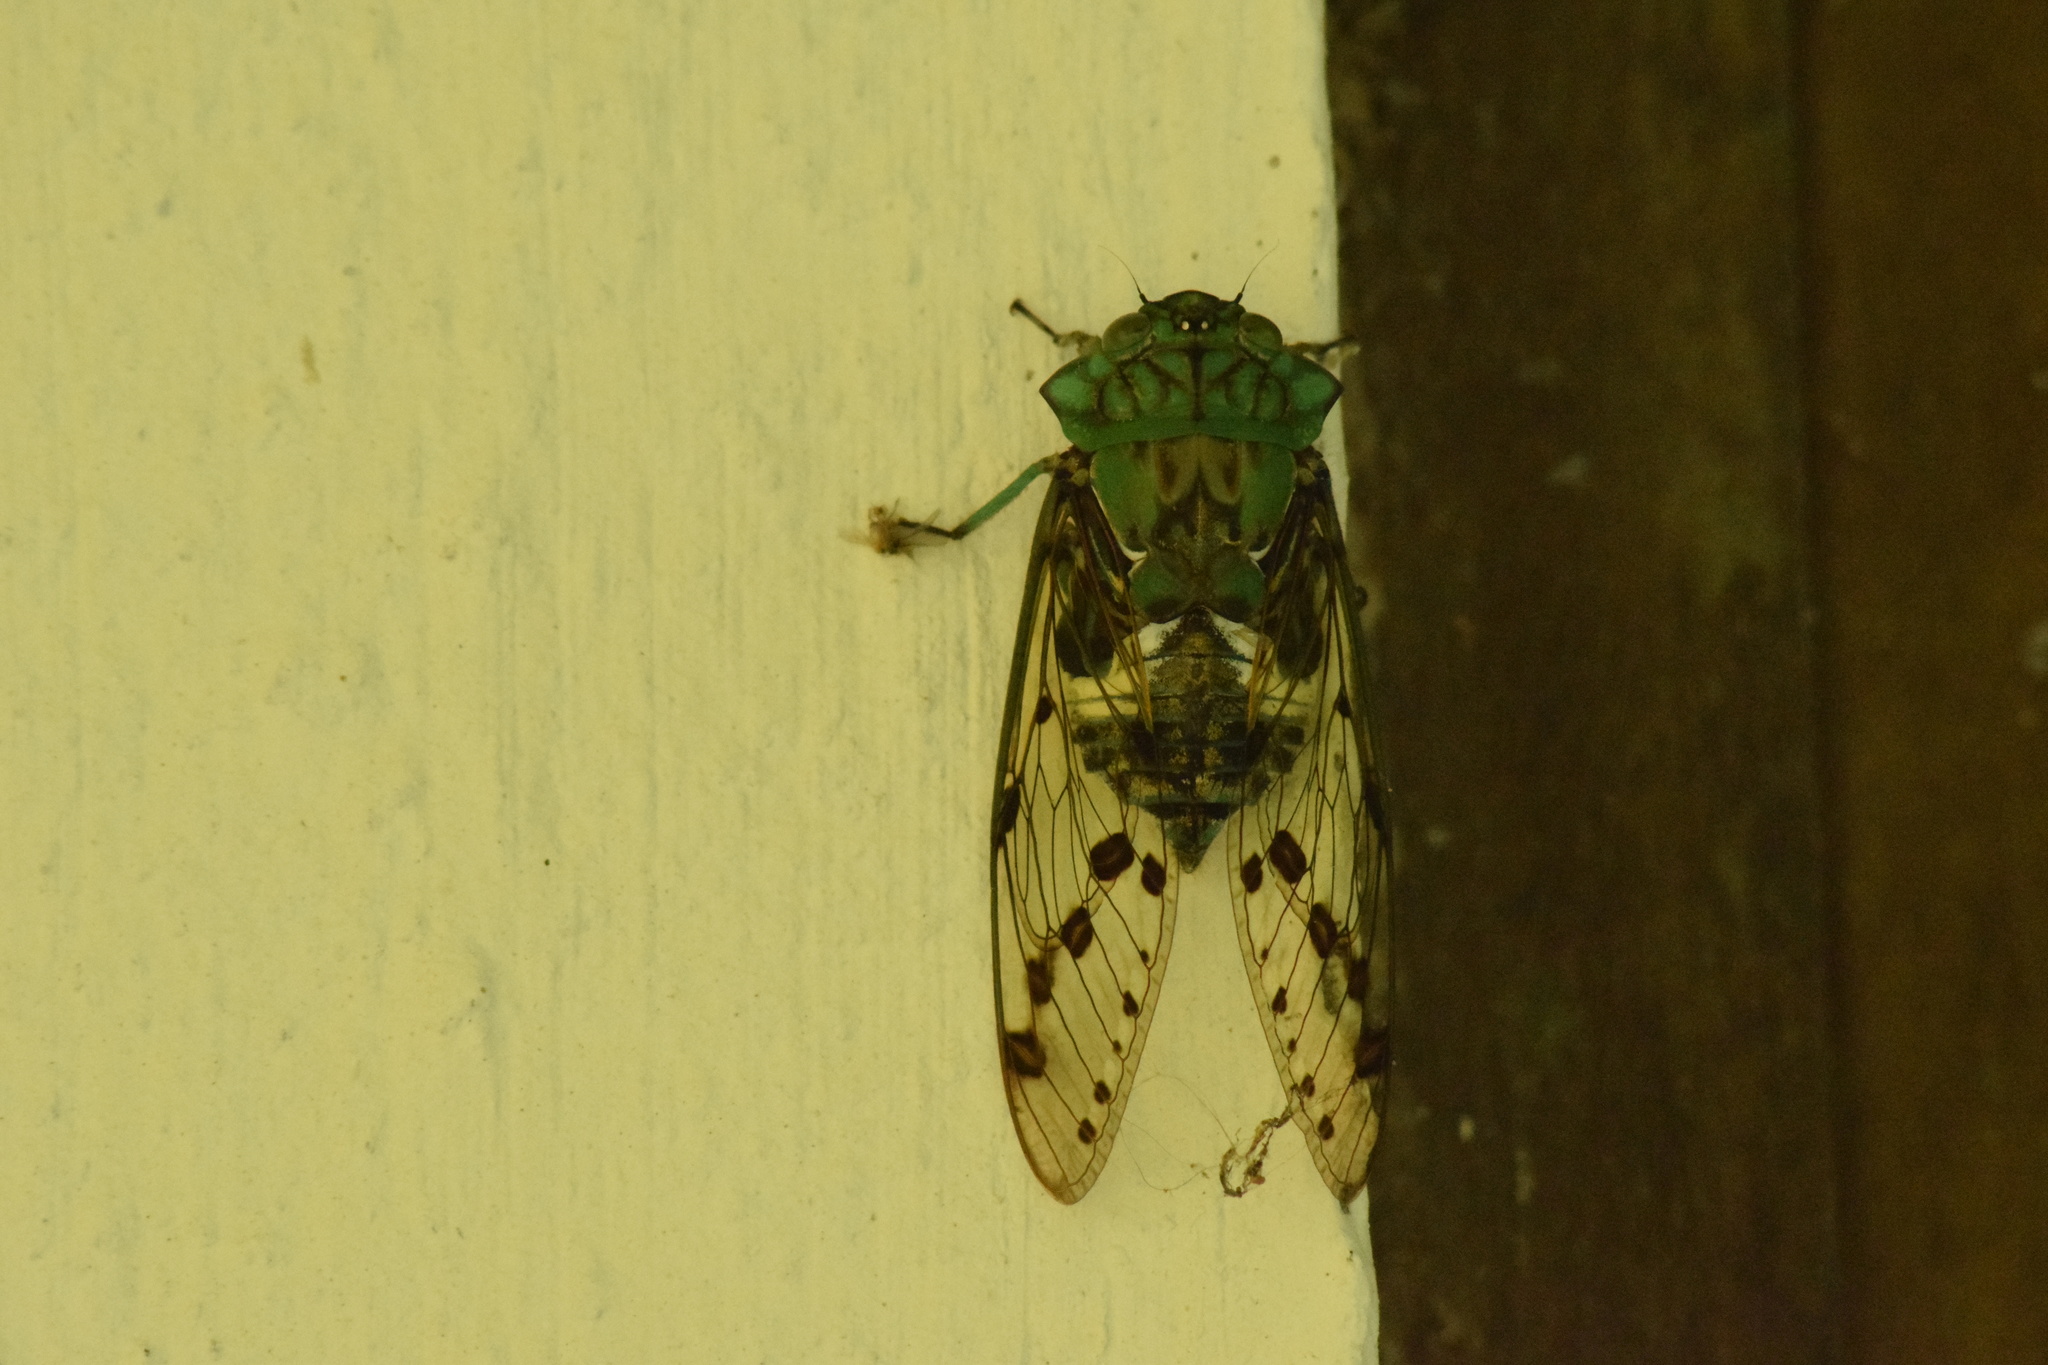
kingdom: Animalia
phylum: Arthropoda
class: Insecta
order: Hemiptera
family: Cicadidae
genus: Zammara
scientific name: Zammara tympanum
